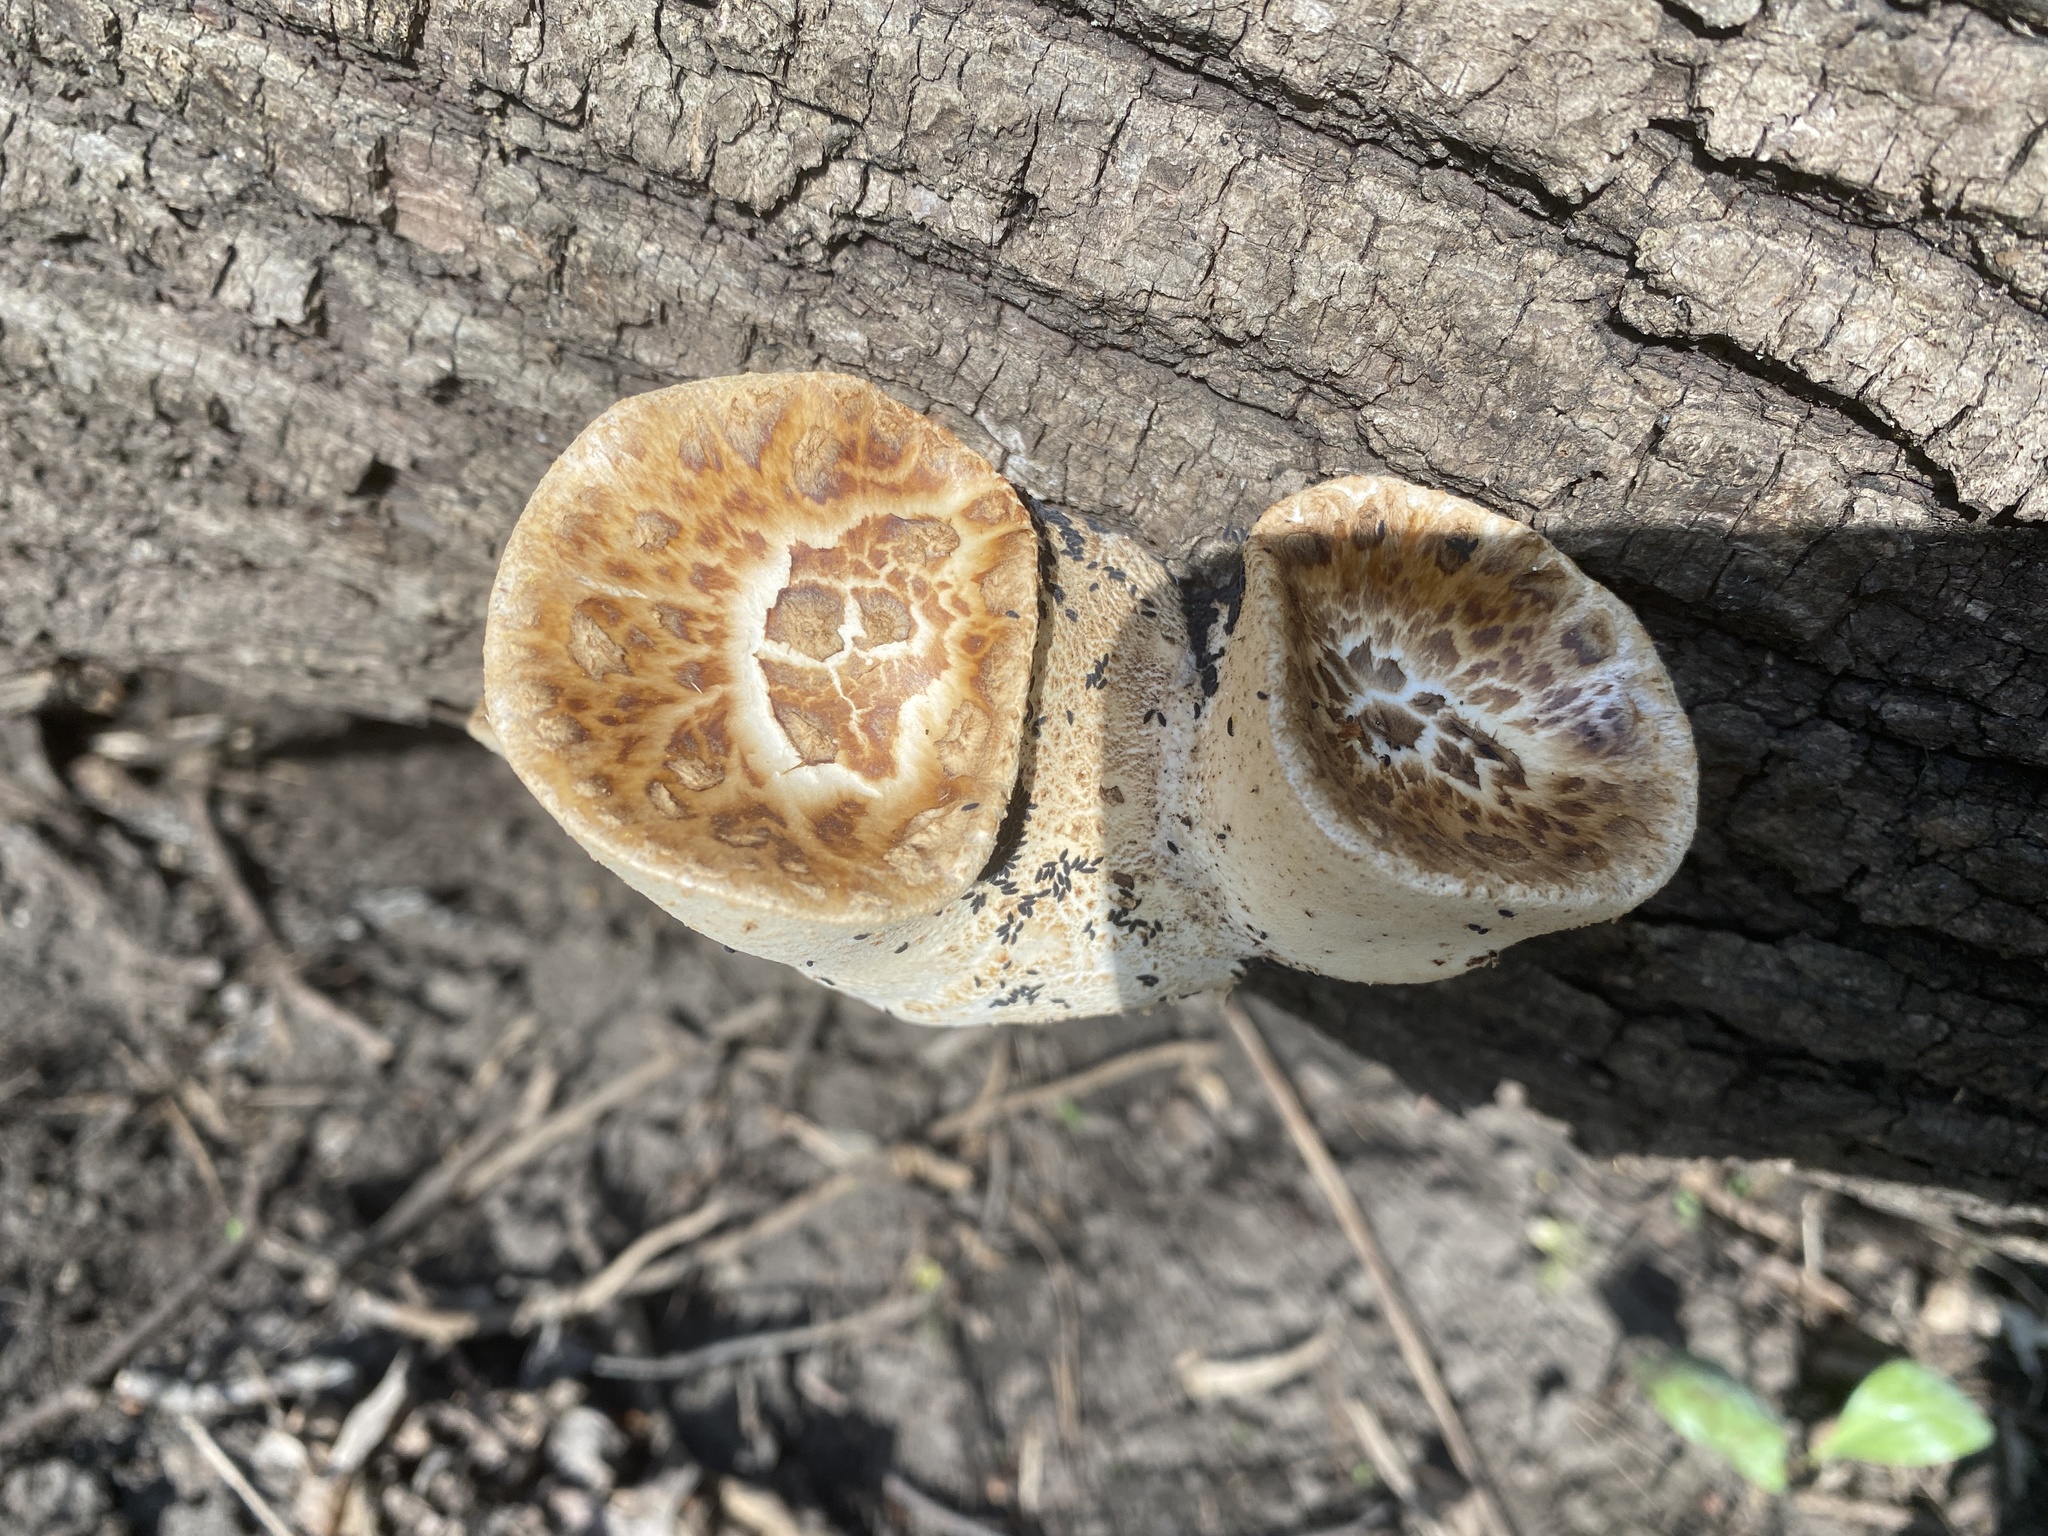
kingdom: Fungi
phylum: Basidiomycota
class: Agaricomycetes
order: Polyporales
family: Polyporaceae
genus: Cerioporus
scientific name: Cerioporus squamosus
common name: Dryad's saddle
